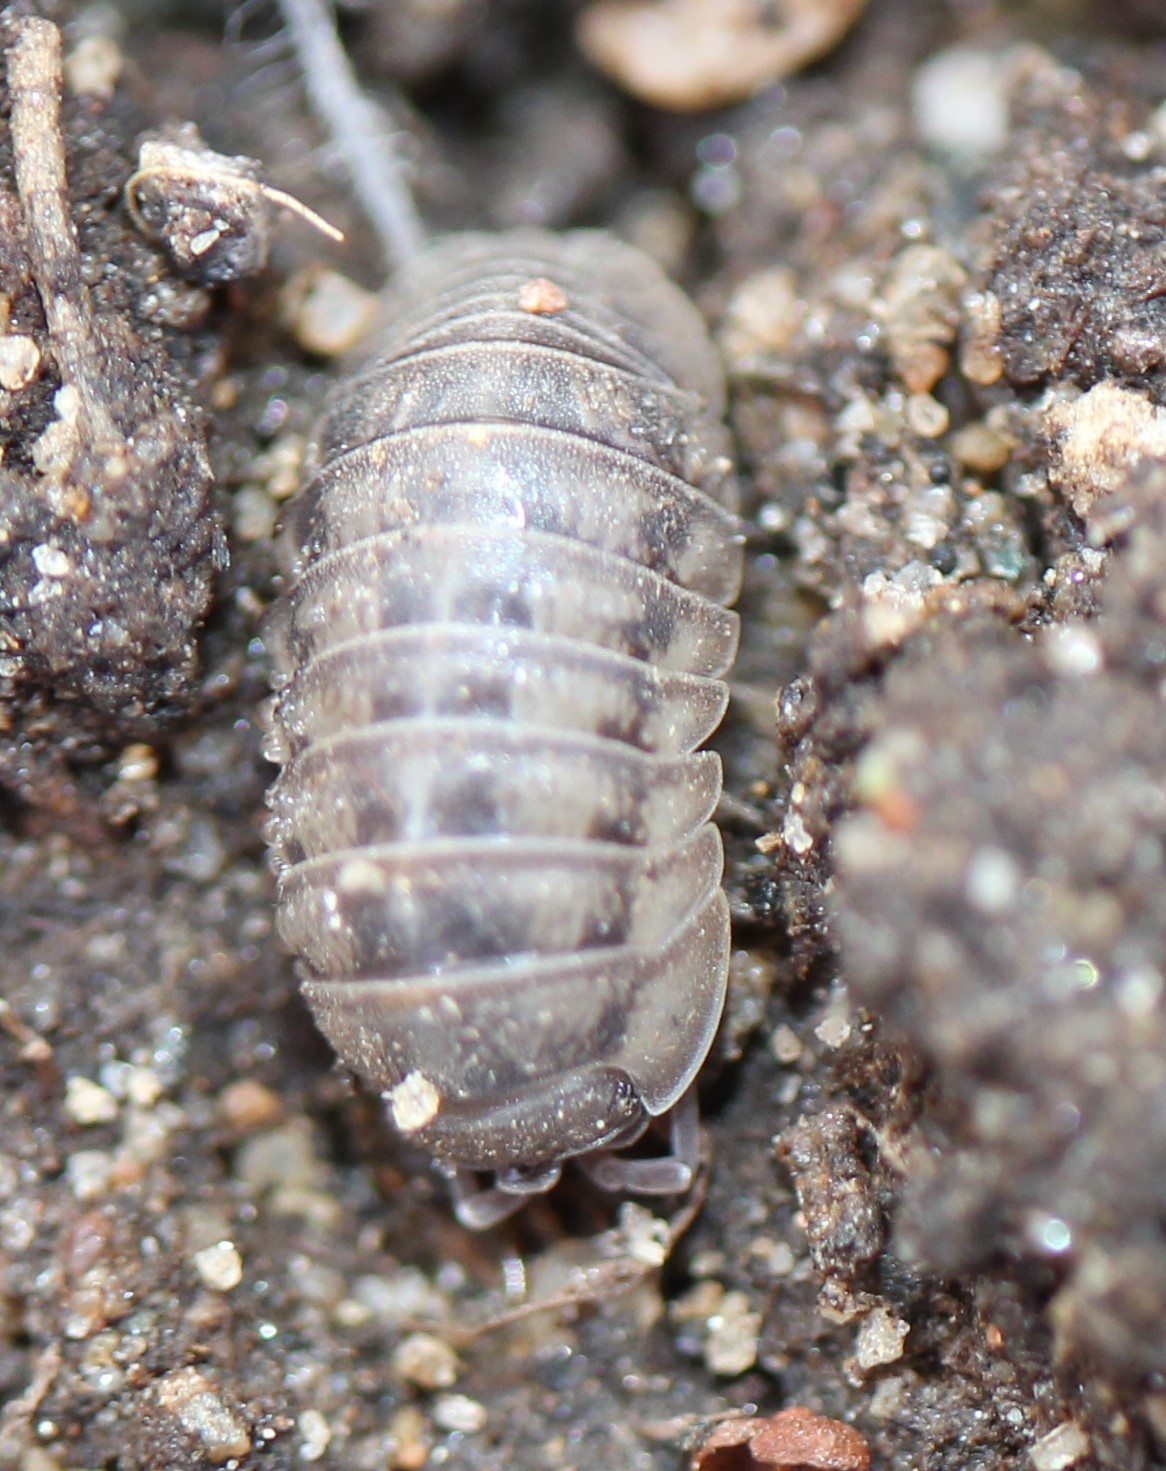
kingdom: Animalia
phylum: Arthropoda
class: Malacostraca
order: Isopoda
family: Armadillidiidae
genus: Armadillidium
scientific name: Armadillidium nasatum
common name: Isopod
